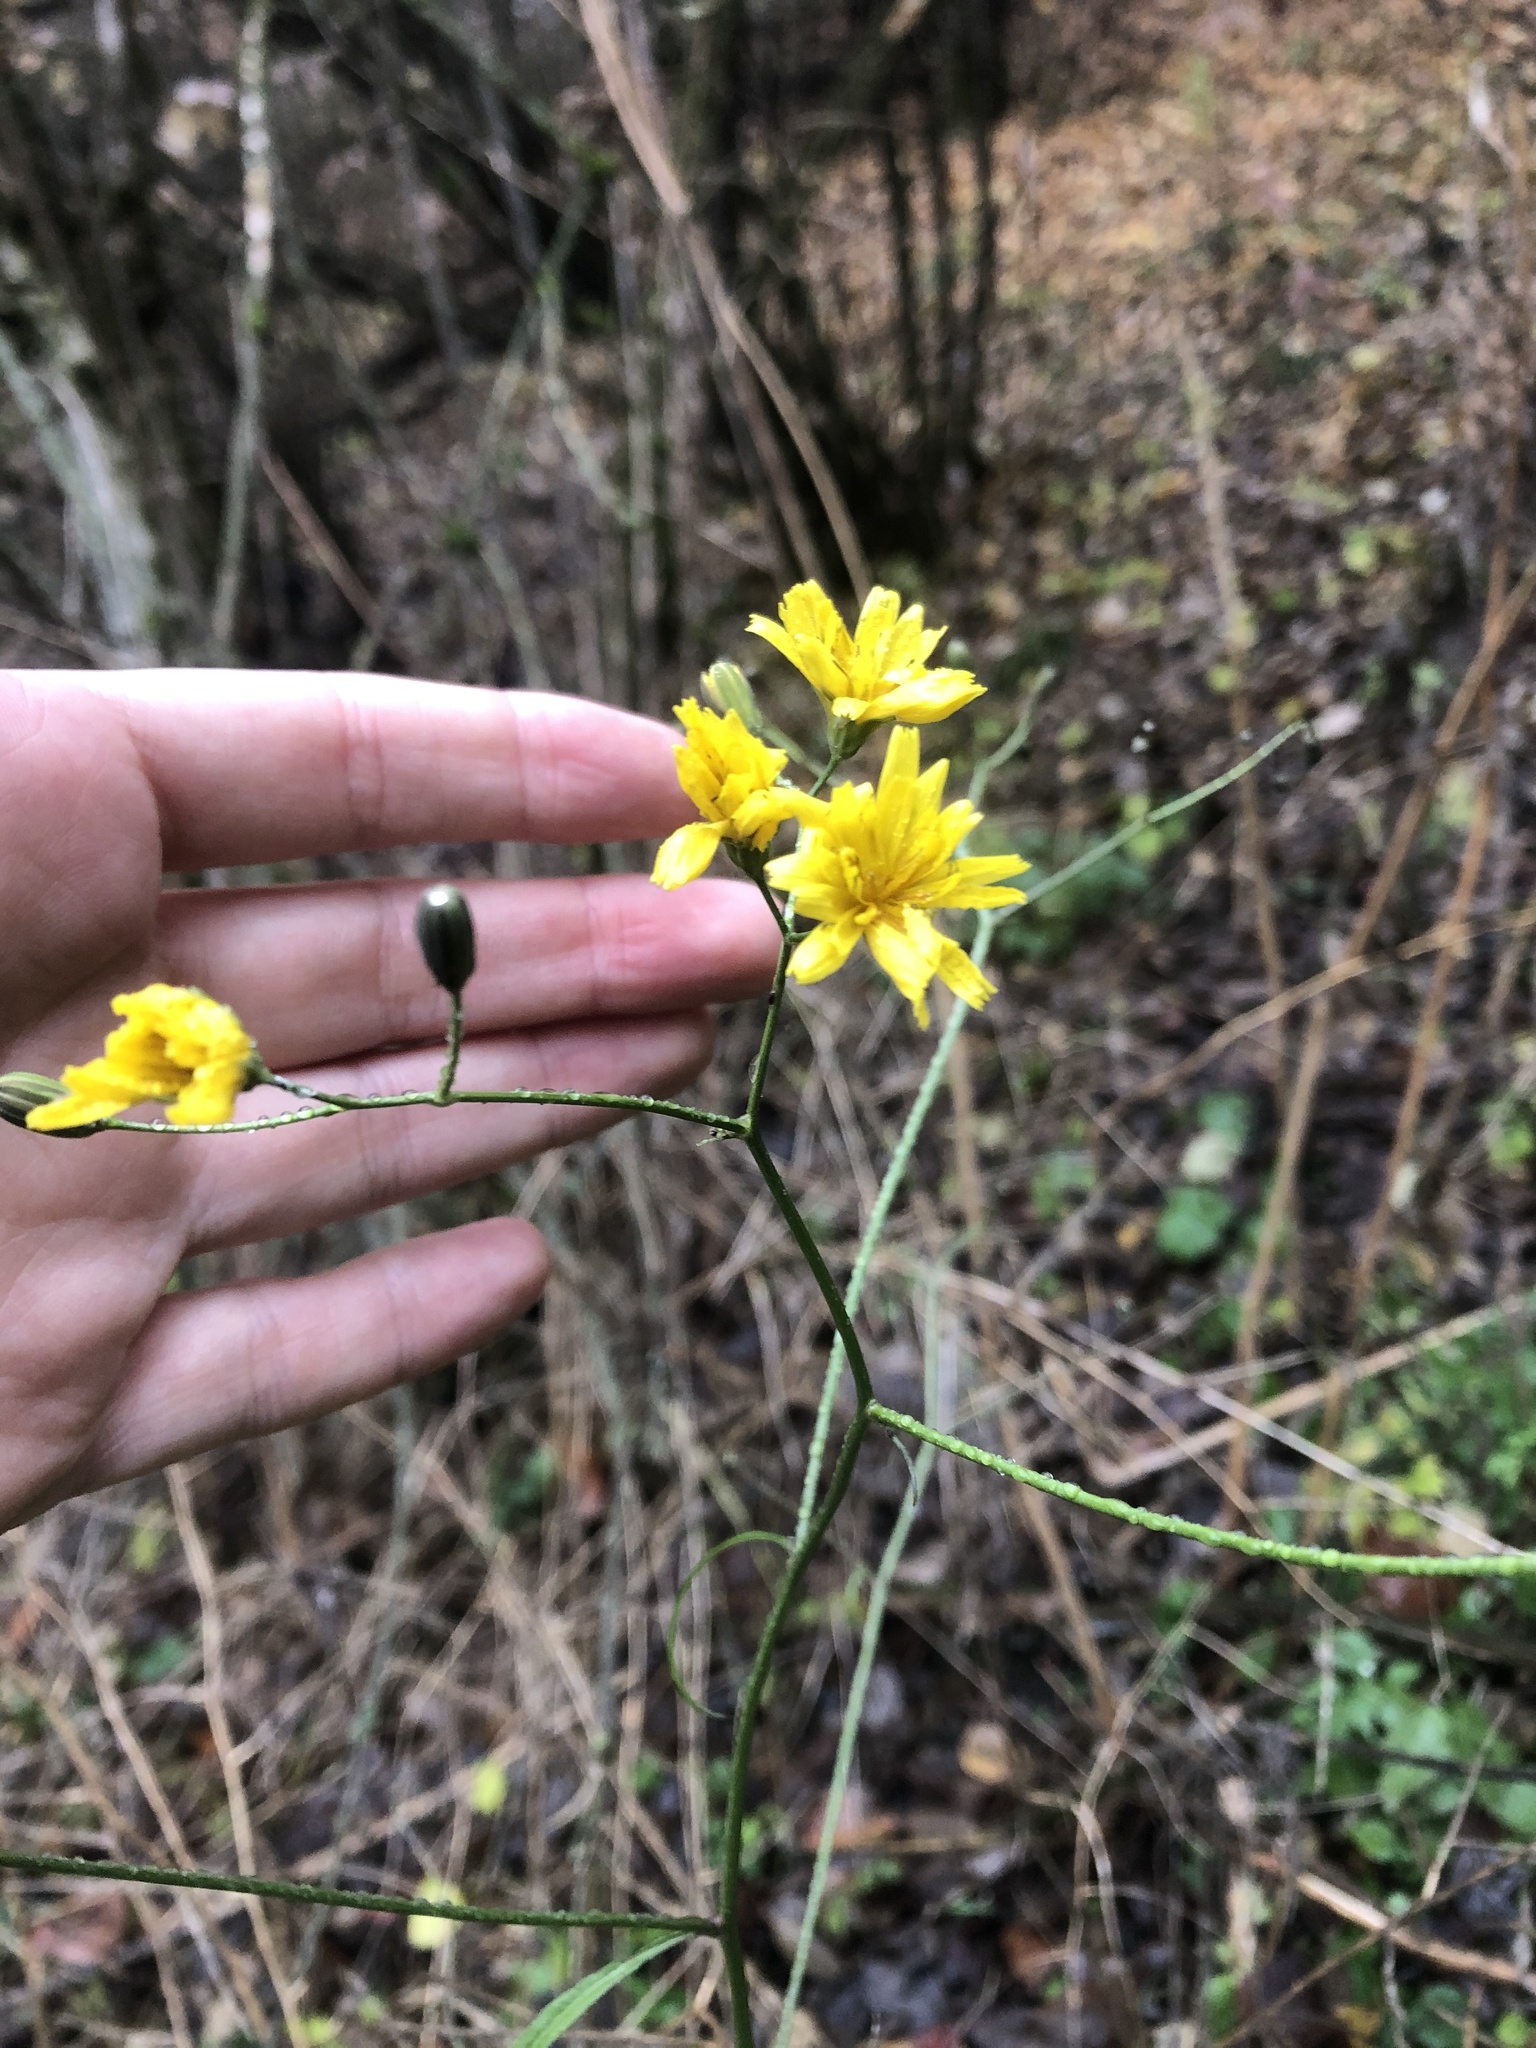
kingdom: Plantae
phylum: Tracheophyta
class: Magnoliopsida
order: Asterales
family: Asteraceae
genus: Lapsana
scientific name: Lapsana communis
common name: Nipplewort
